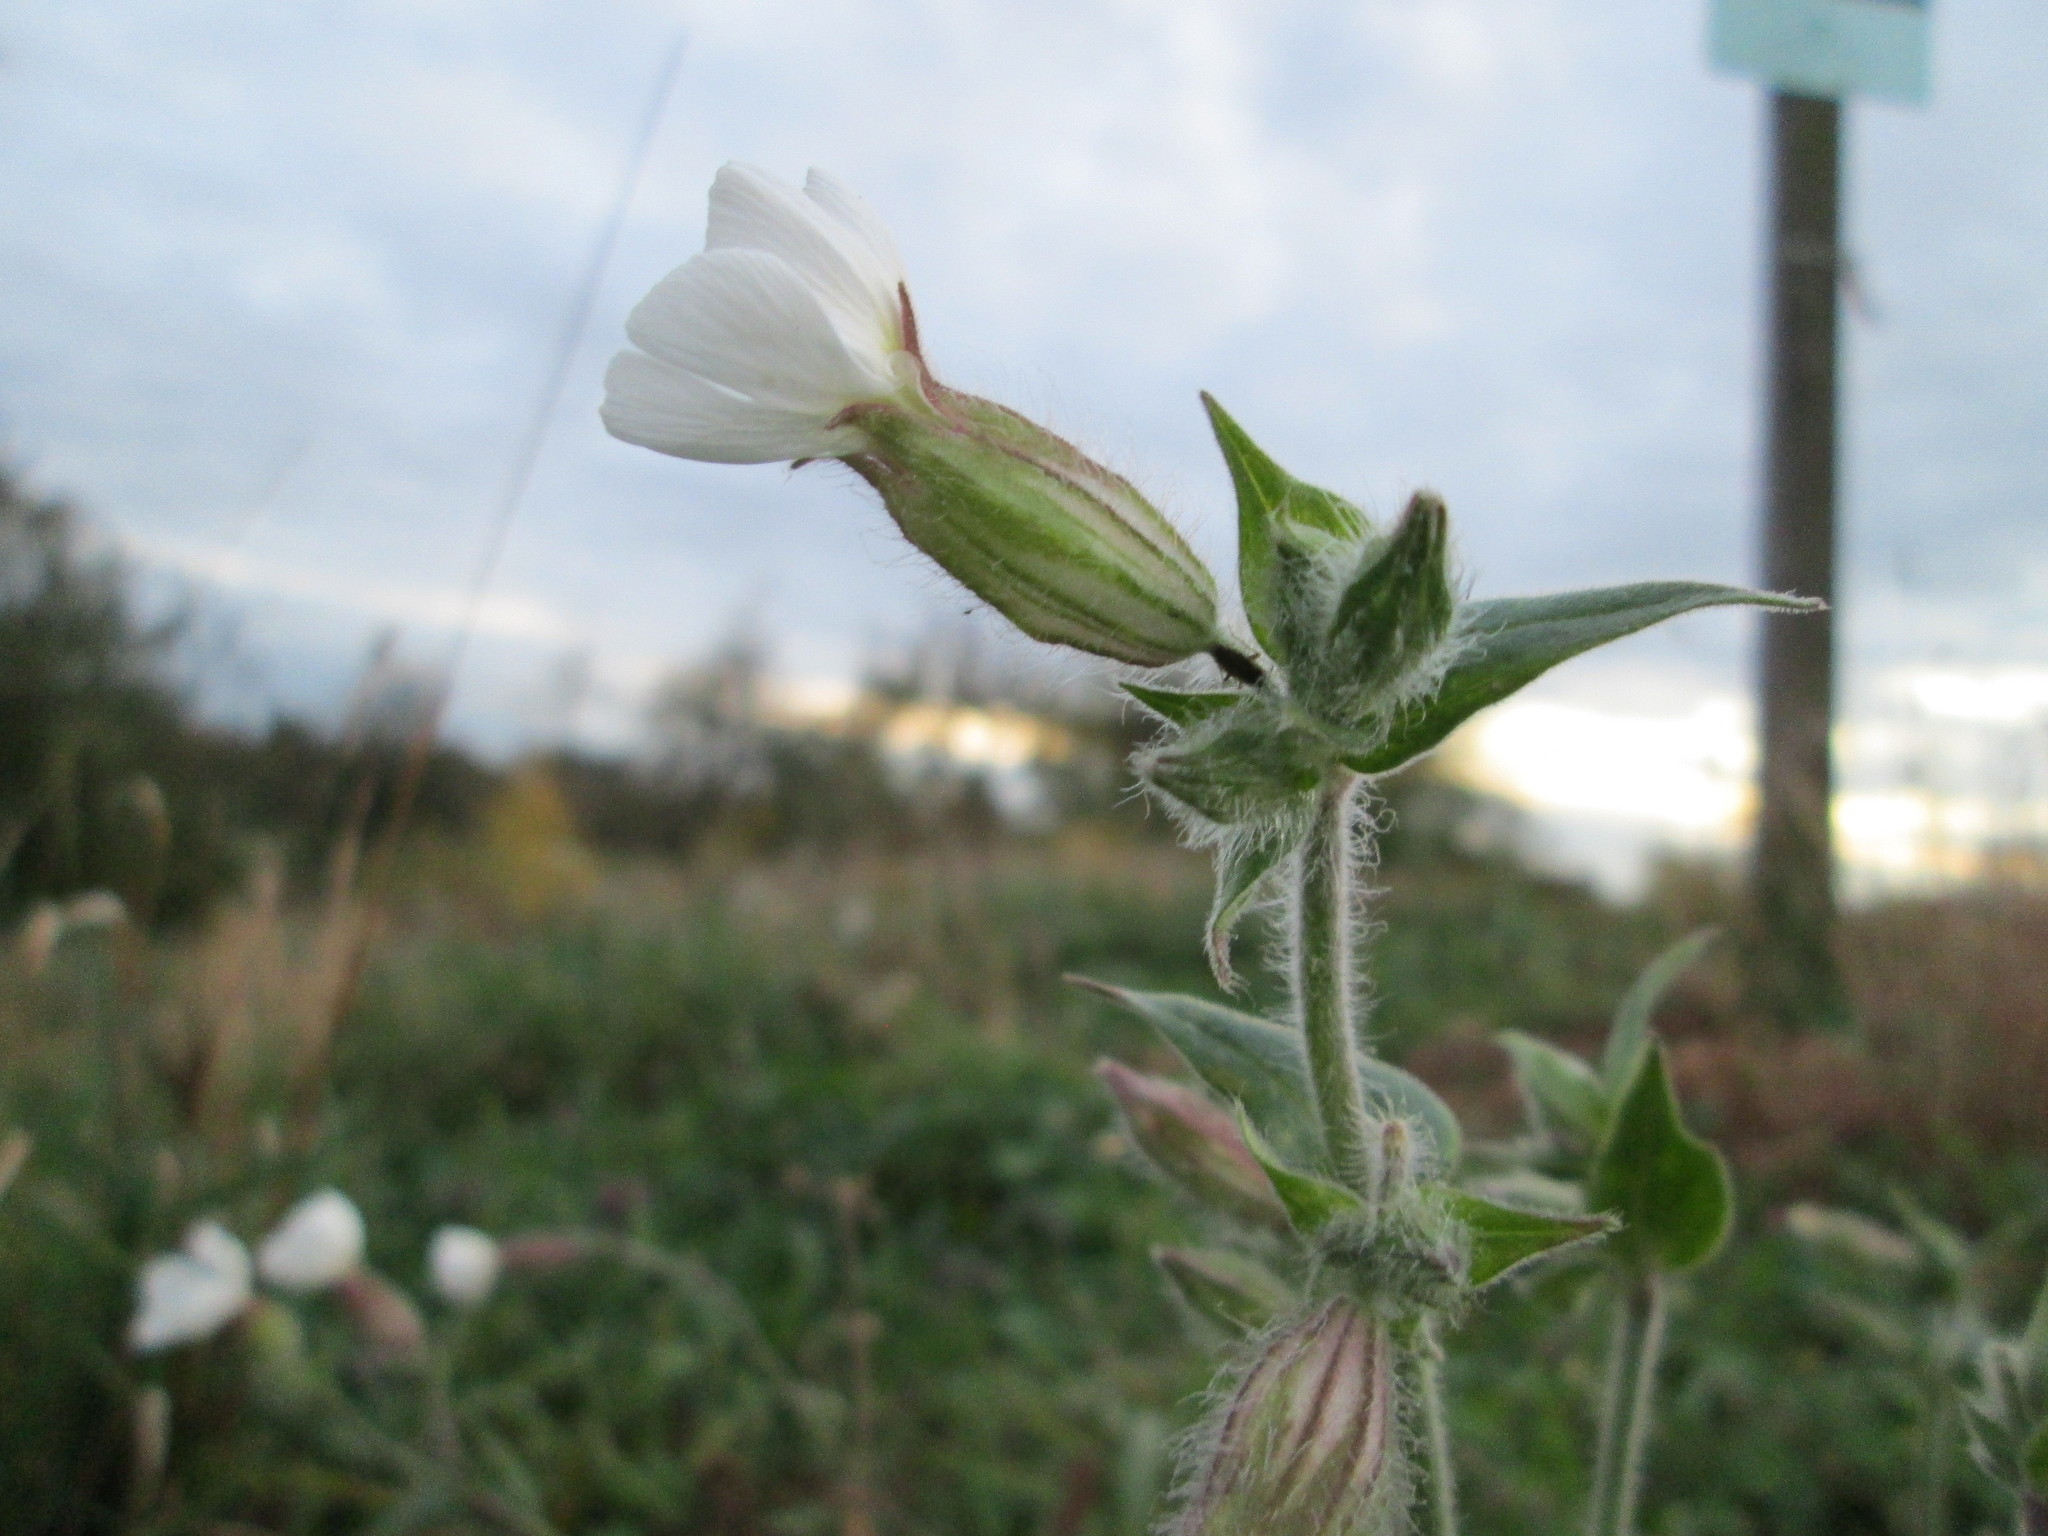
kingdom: Plantae
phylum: Tracheophyta
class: Magnoliopsida
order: Caryophyllales
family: Caryophyllaceae
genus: Silene
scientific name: Silene latifolia
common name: White campion
